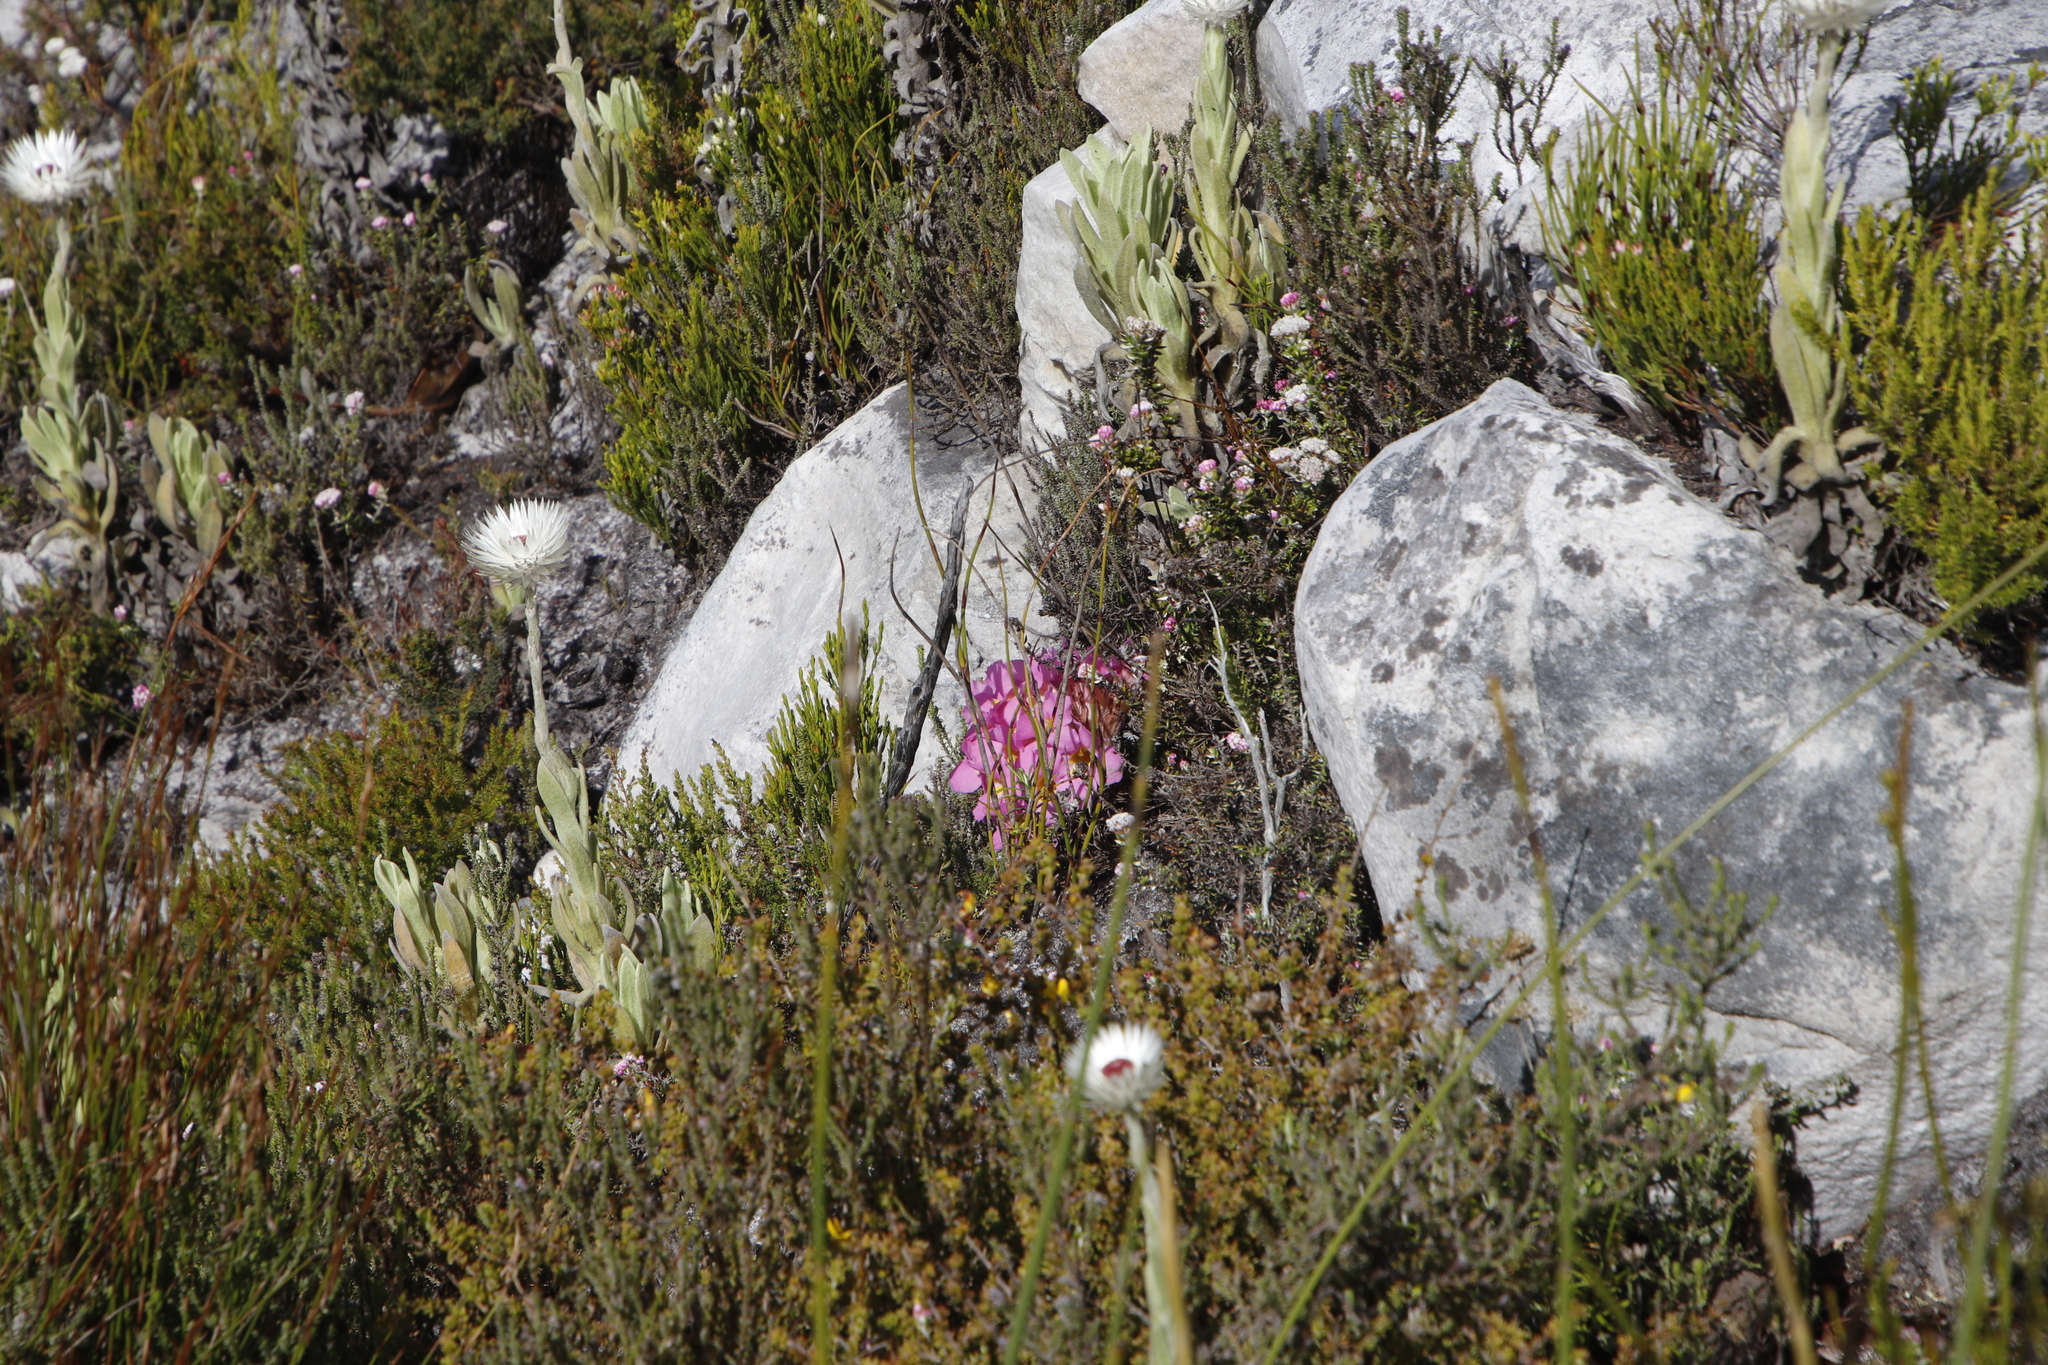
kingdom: Plantae
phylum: Tracheophyta
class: Magnoliopsida
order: Lamiales
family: Orobanchaceae
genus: Harveya
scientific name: Harveya purpurea
